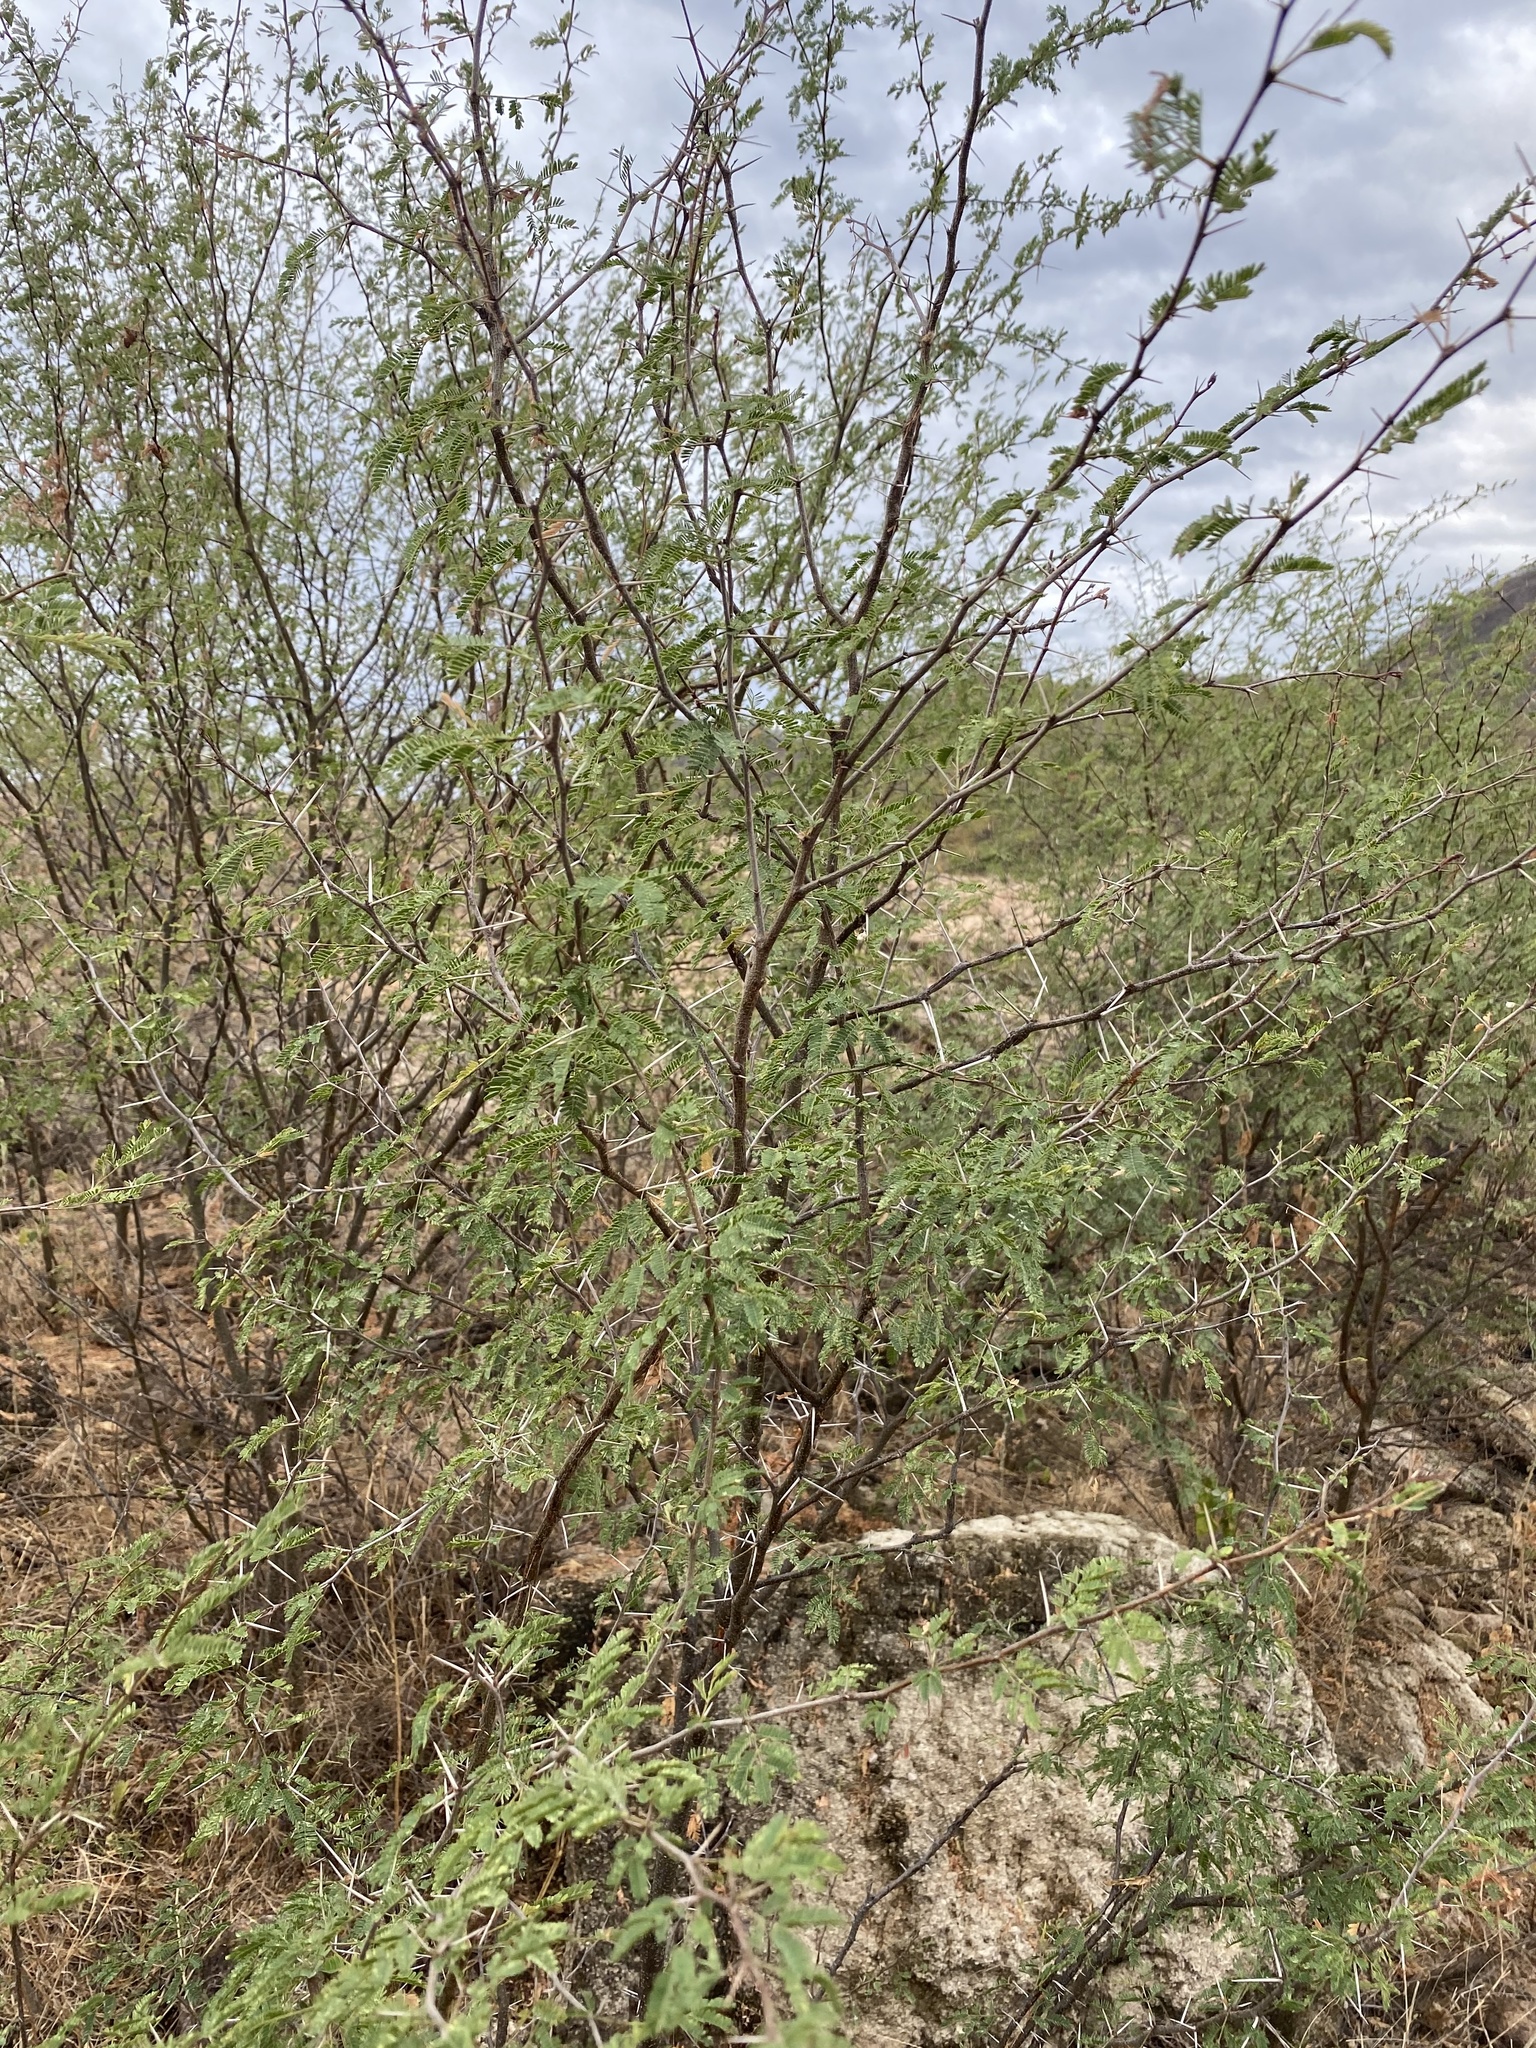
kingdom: Plantae
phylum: Tracheophyta
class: Magnoliopsida
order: Fabales
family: Fabaceae
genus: Vachellia
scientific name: Vachellia farnesiana
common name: Sweet acacia
